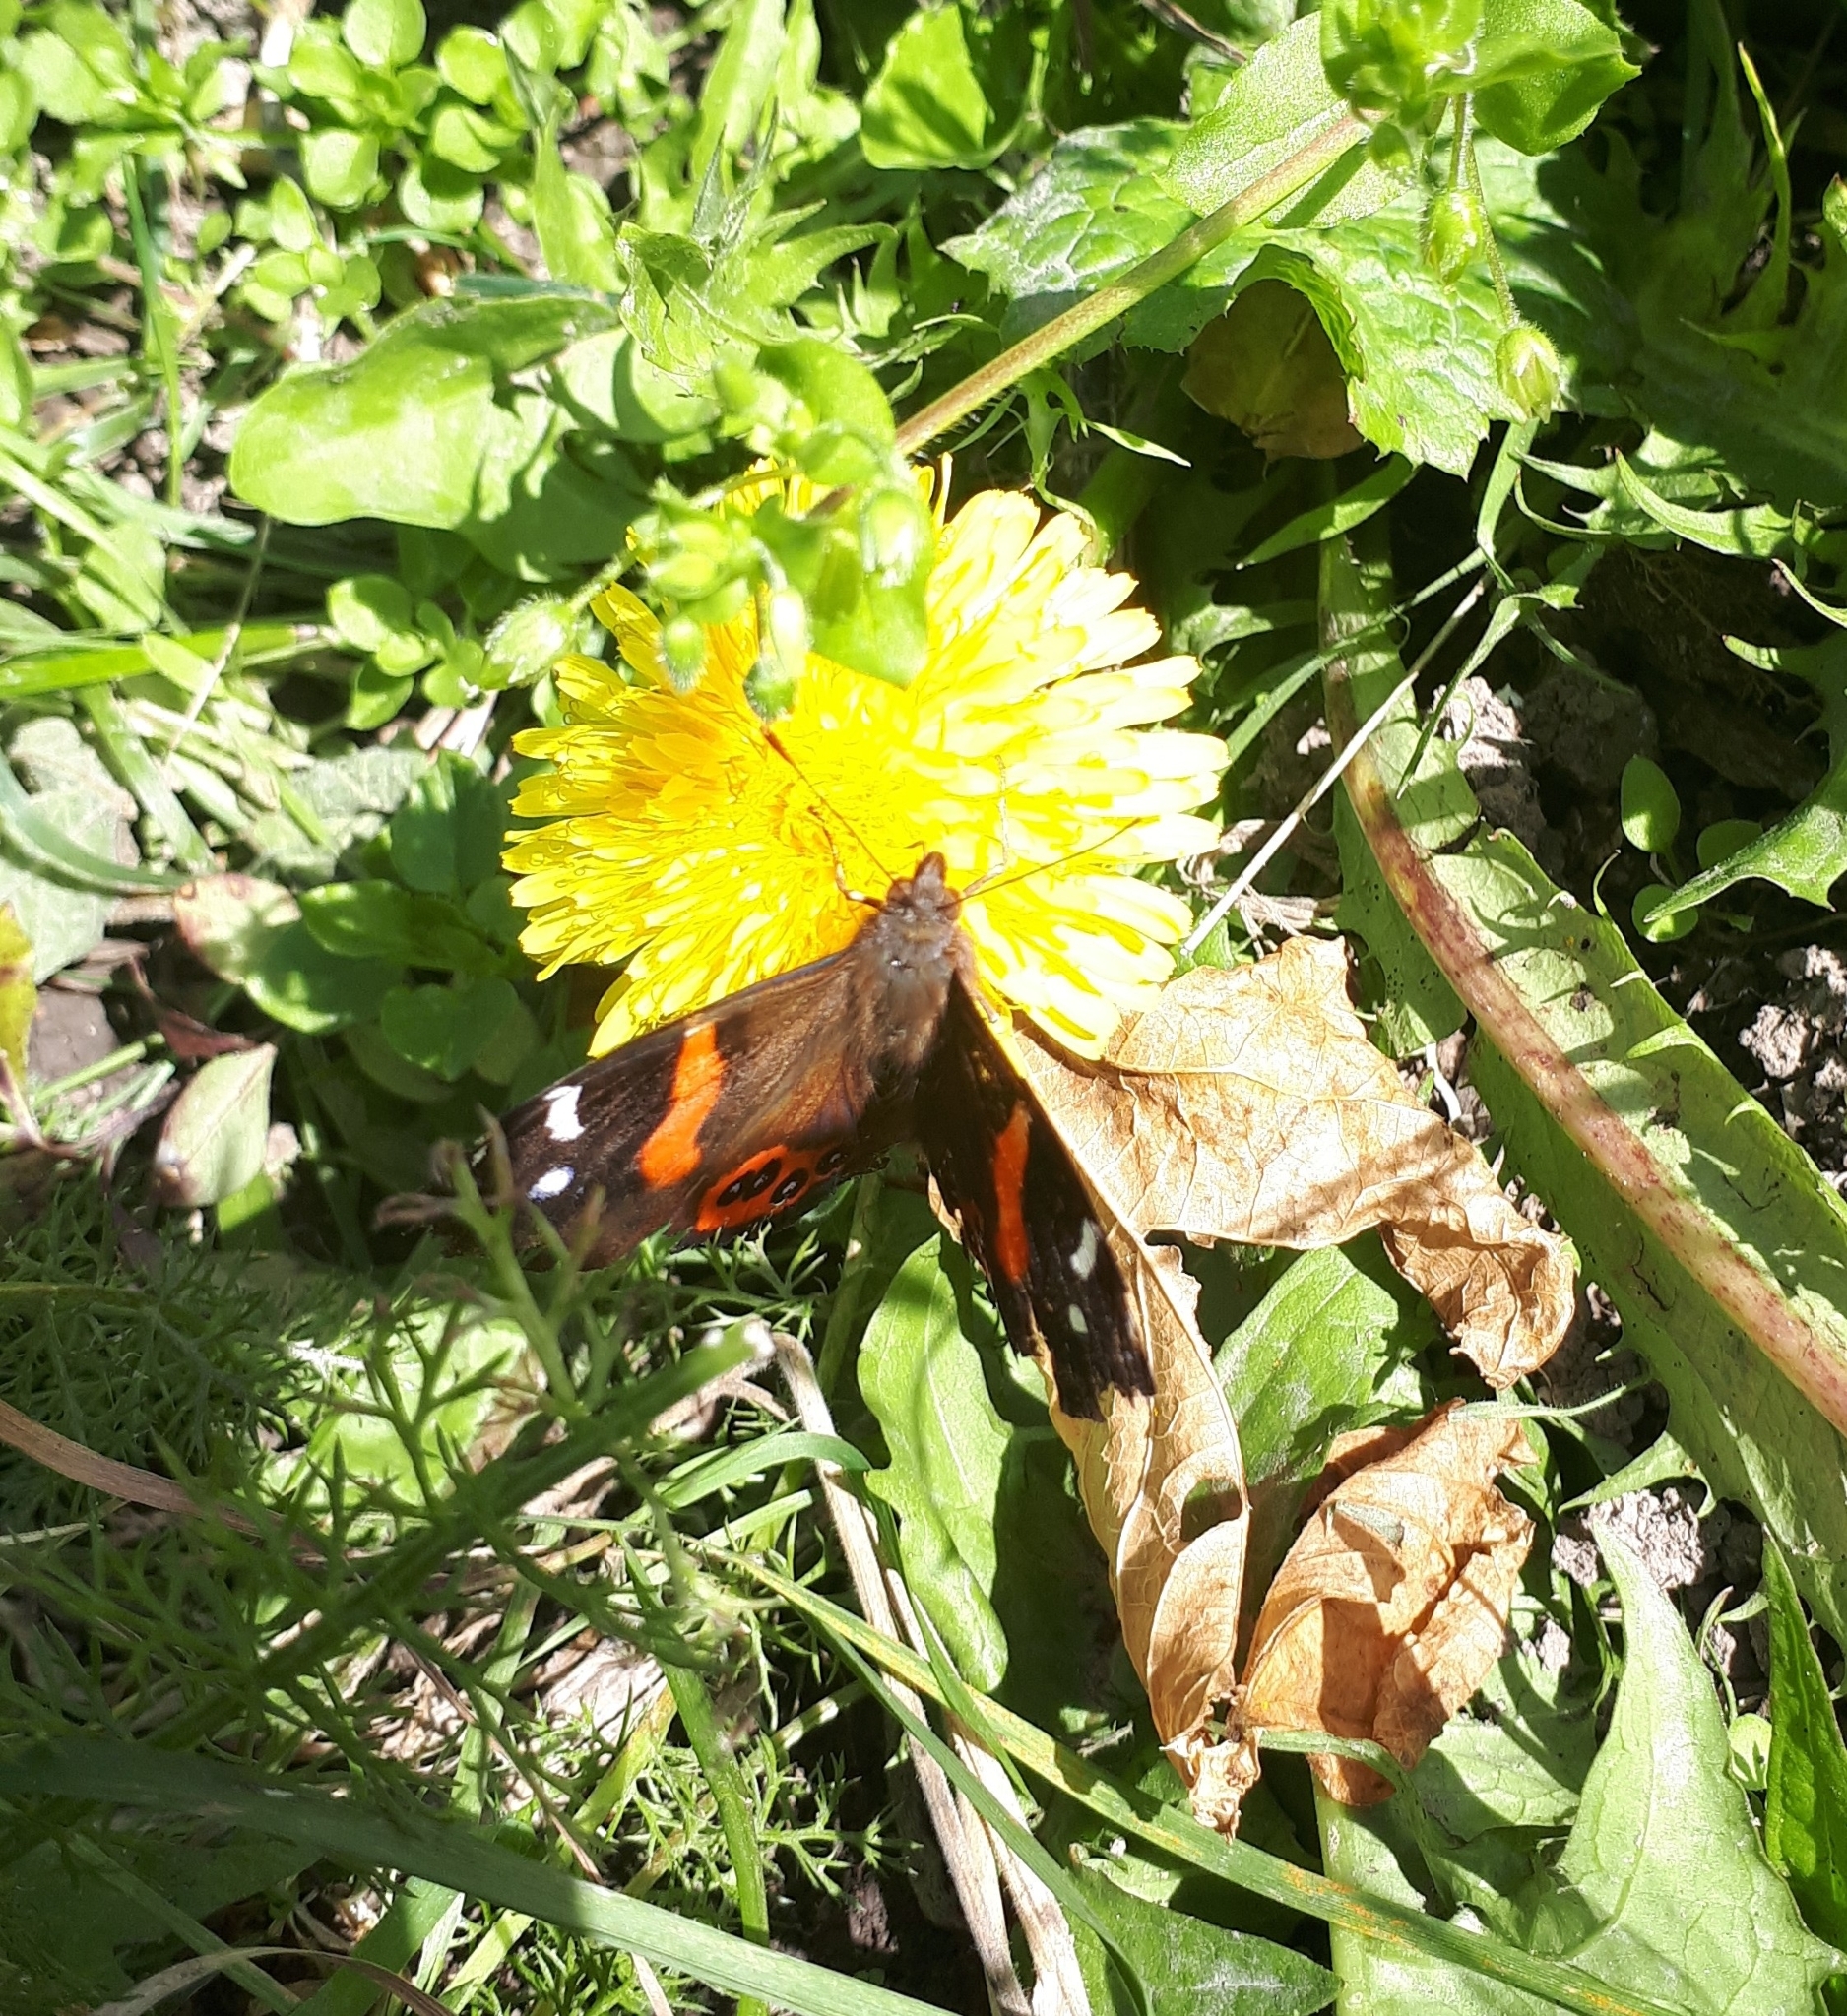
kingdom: Animalia
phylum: Arthropoda
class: Insecta
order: Lepidoptera
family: Nymphalidae
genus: Vanessa
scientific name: Vanessa gonerilla
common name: New zealand red admiral
